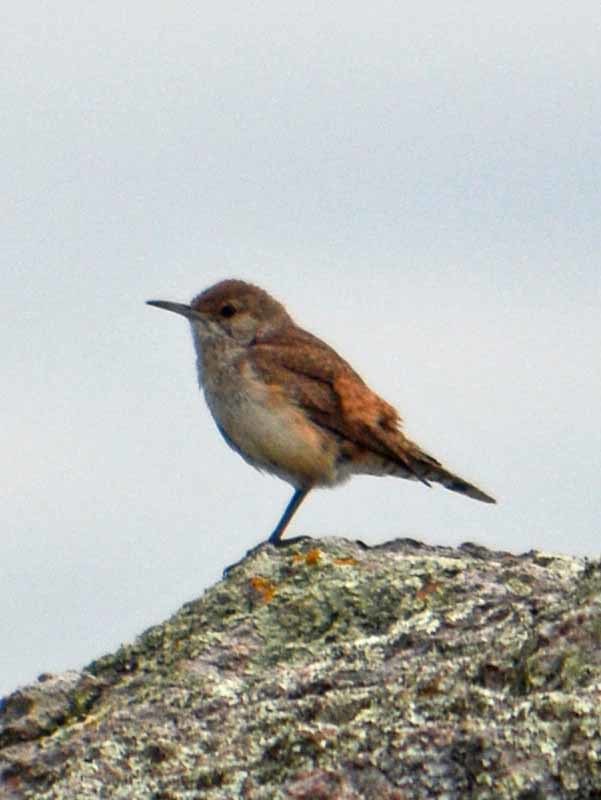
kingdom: Animalia
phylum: Chordata
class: Aves
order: Passeriformes
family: Troglodytidae
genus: Salpinctes
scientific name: Salpinctes obsoletus
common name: Rock wren
